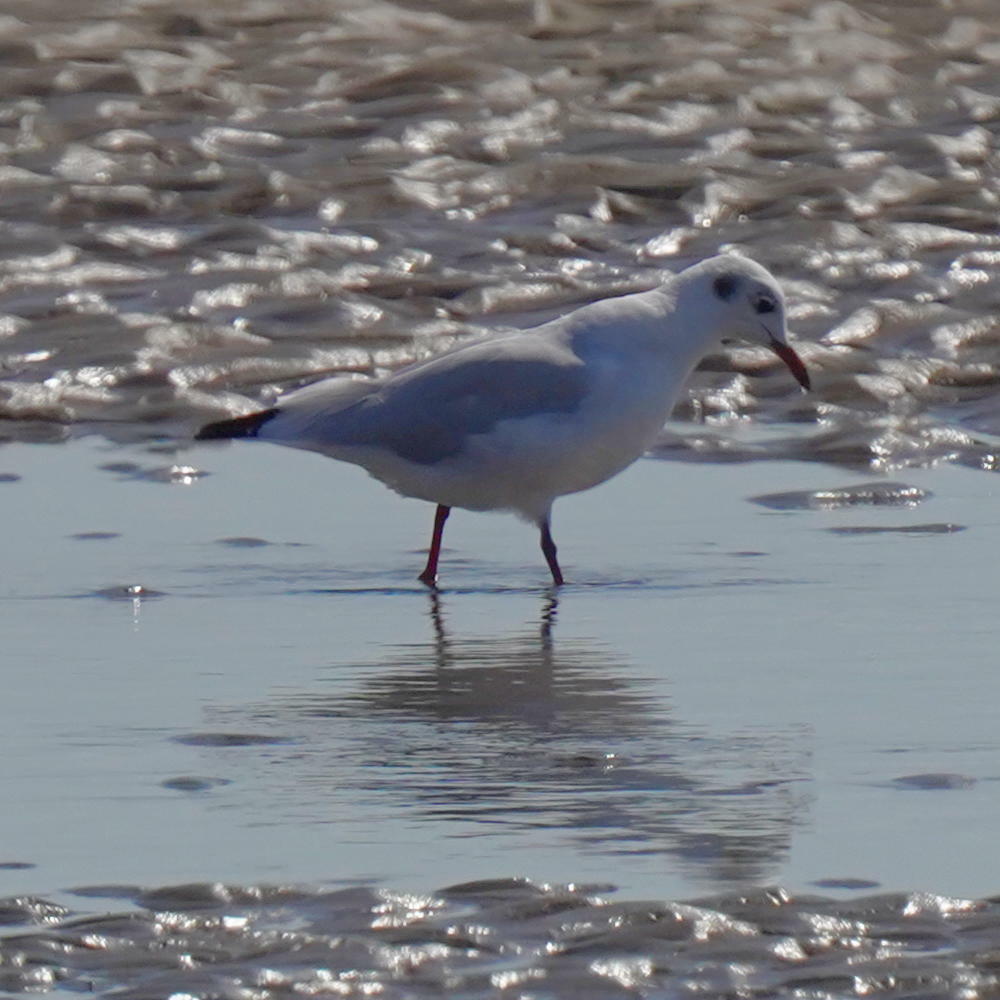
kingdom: Animalia
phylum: Chordata
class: Aves
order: Charadriiformes
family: Laridae
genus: Chroicocephalus
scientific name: Chroicocephalus ridibundus
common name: Black-headed gull
